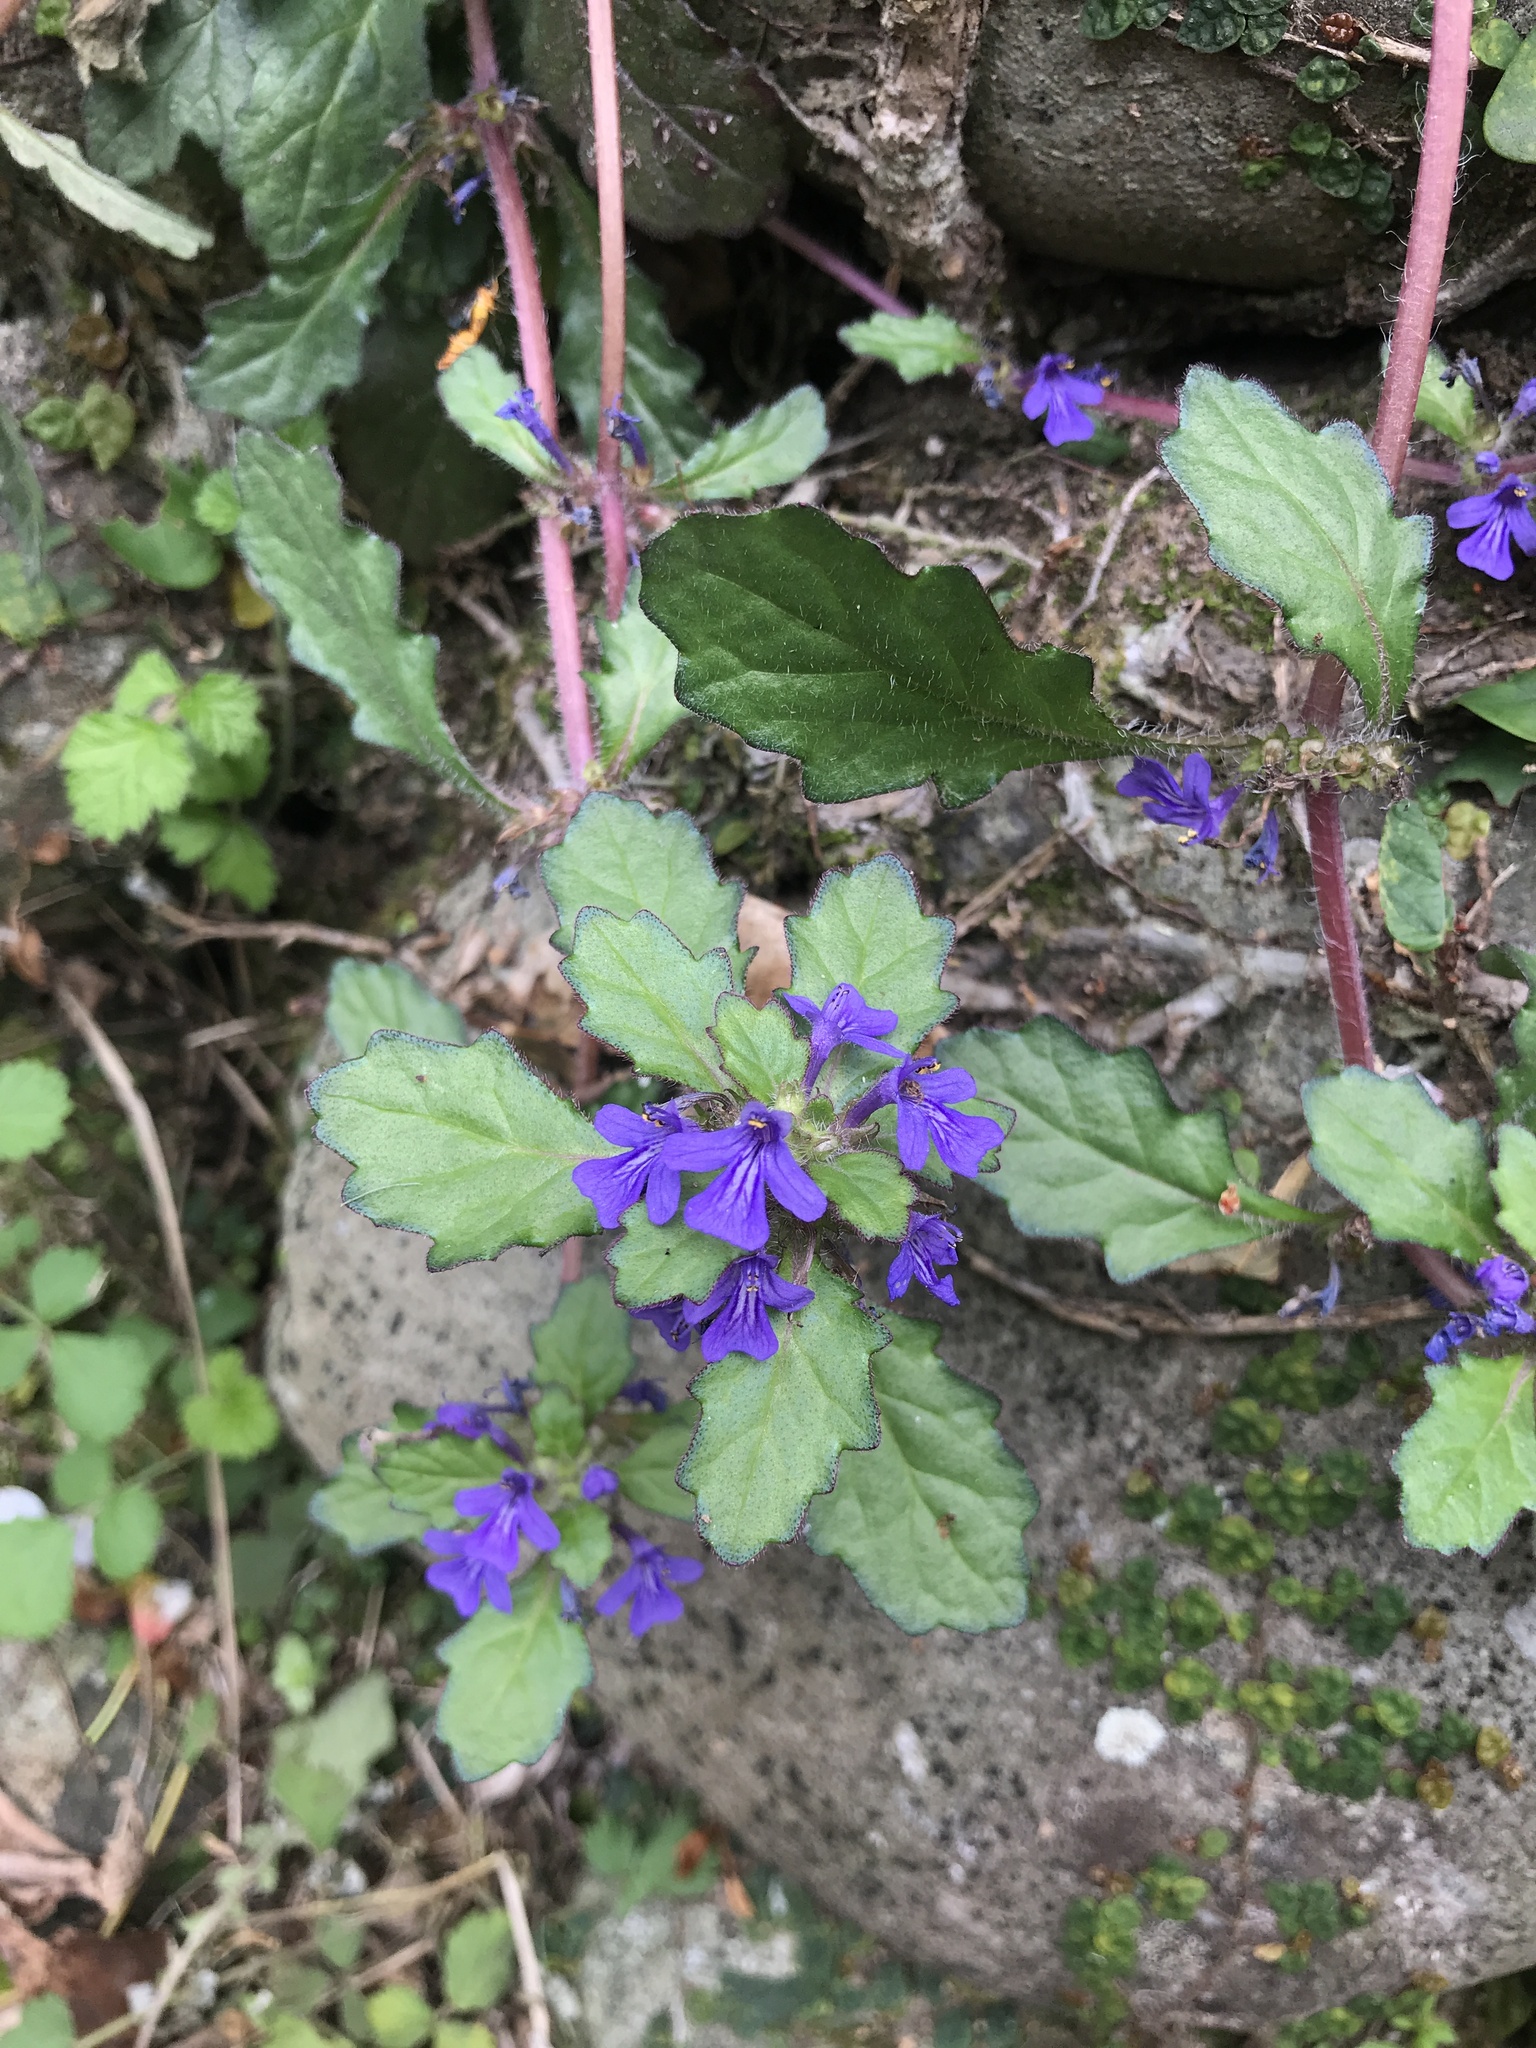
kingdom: Plantae
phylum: Tracheophyta
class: Magnoliopsida
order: Lamiales
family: Lamiaceae
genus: Ajuga
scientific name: Ajuga decumbens
